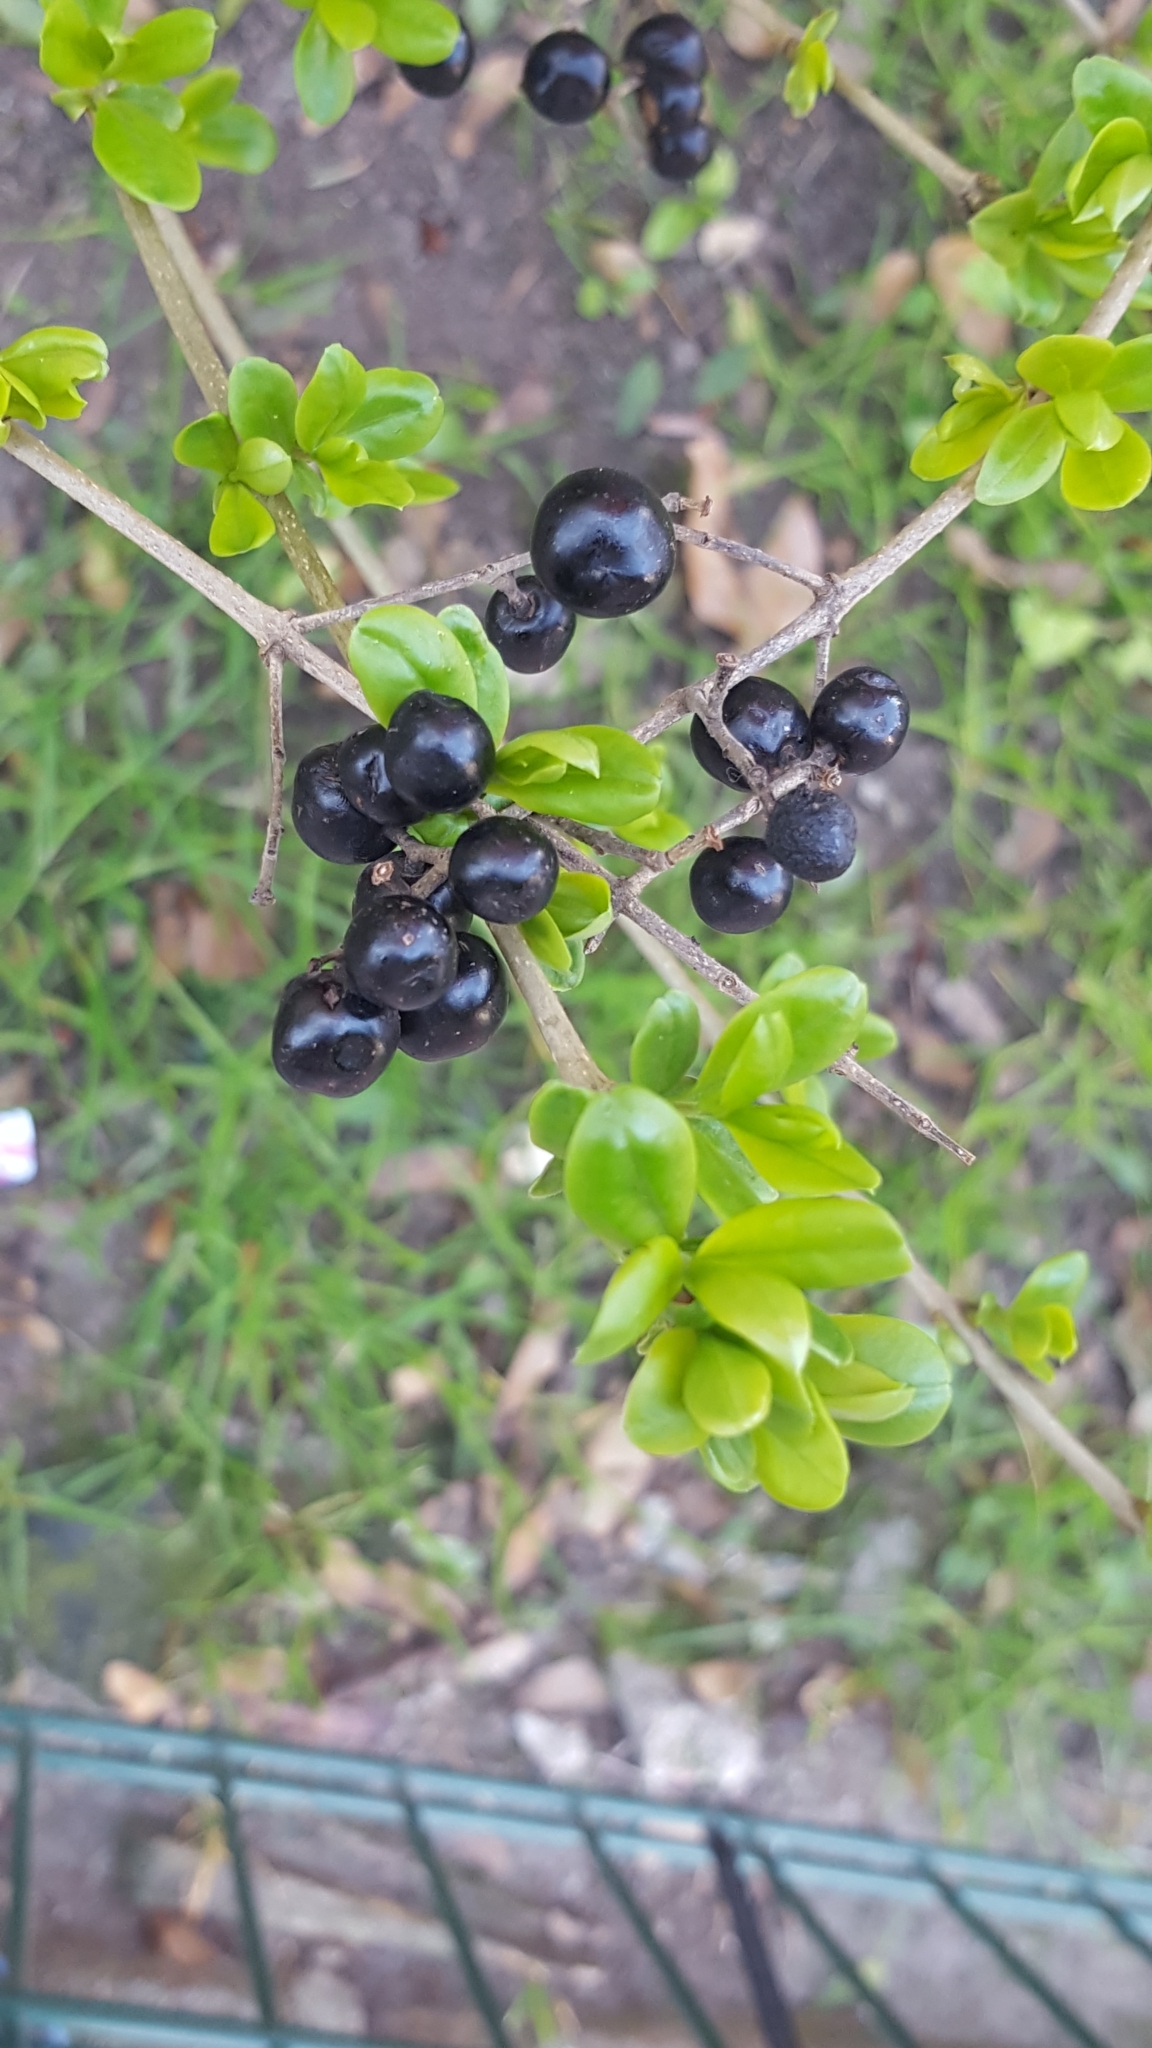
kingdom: Plantae
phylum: Tracheophyta
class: Magnoliopsida
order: Lamiales
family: Oleaceae
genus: Ligustrum
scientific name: Ligustrum vulgare
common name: Wild privet
